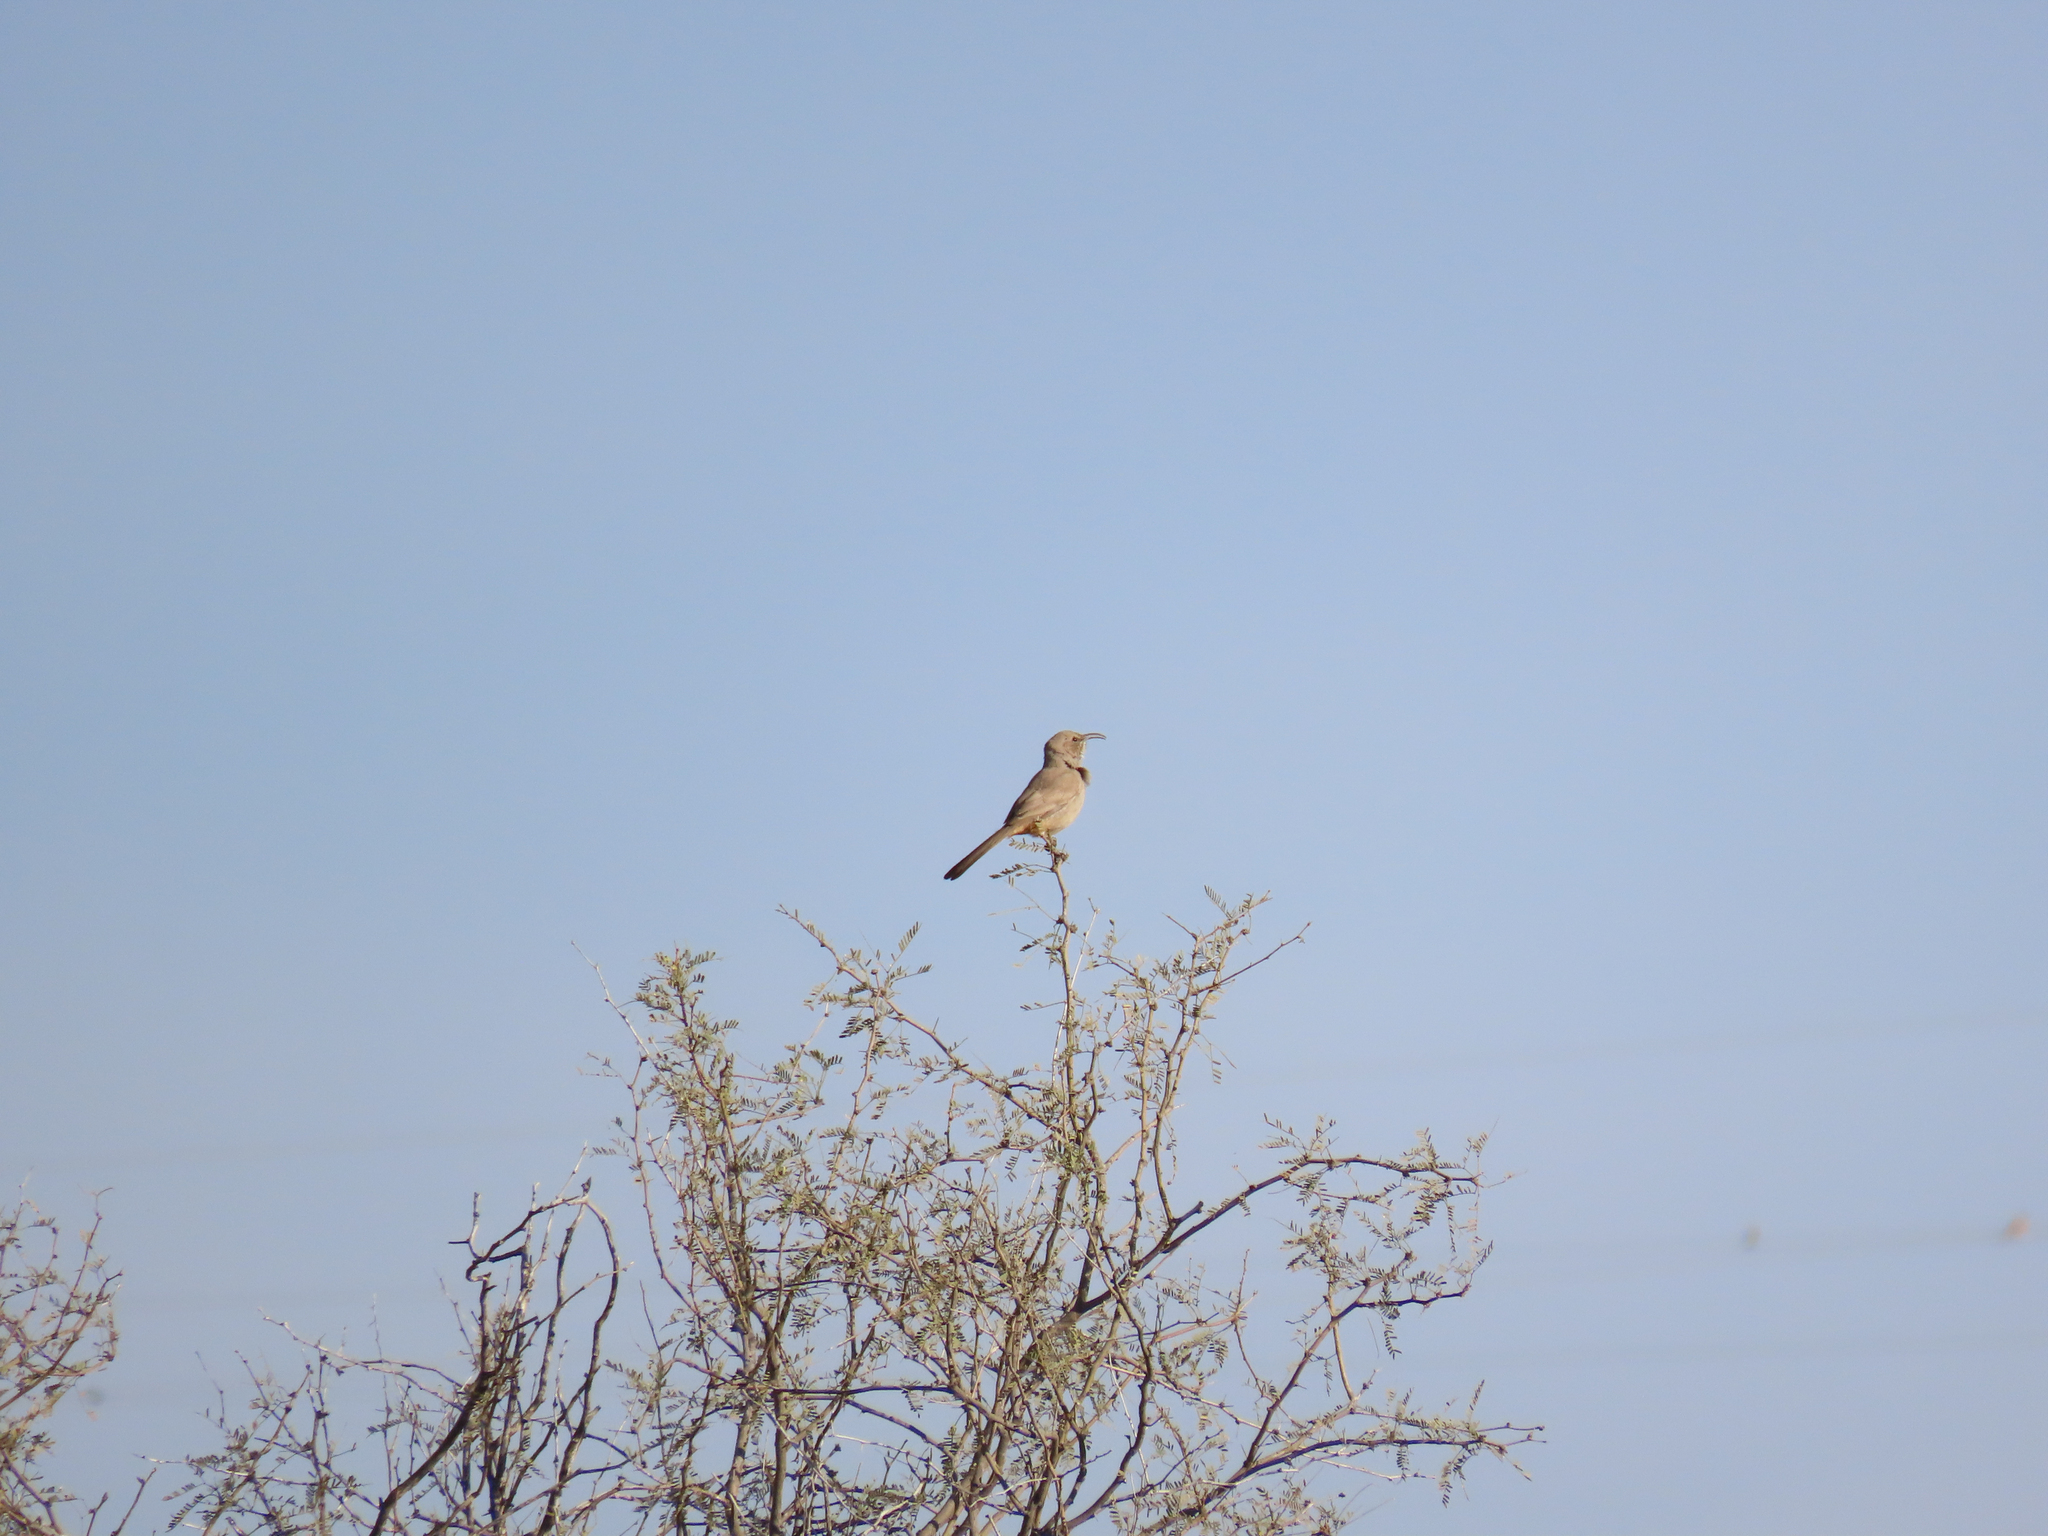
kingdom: Animalia
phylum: Chordata
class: Aves
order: Passeriformes
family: Mimidae
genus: Toxostoma
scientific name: Toxostoma lecontei
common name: Le conte's thrasher
